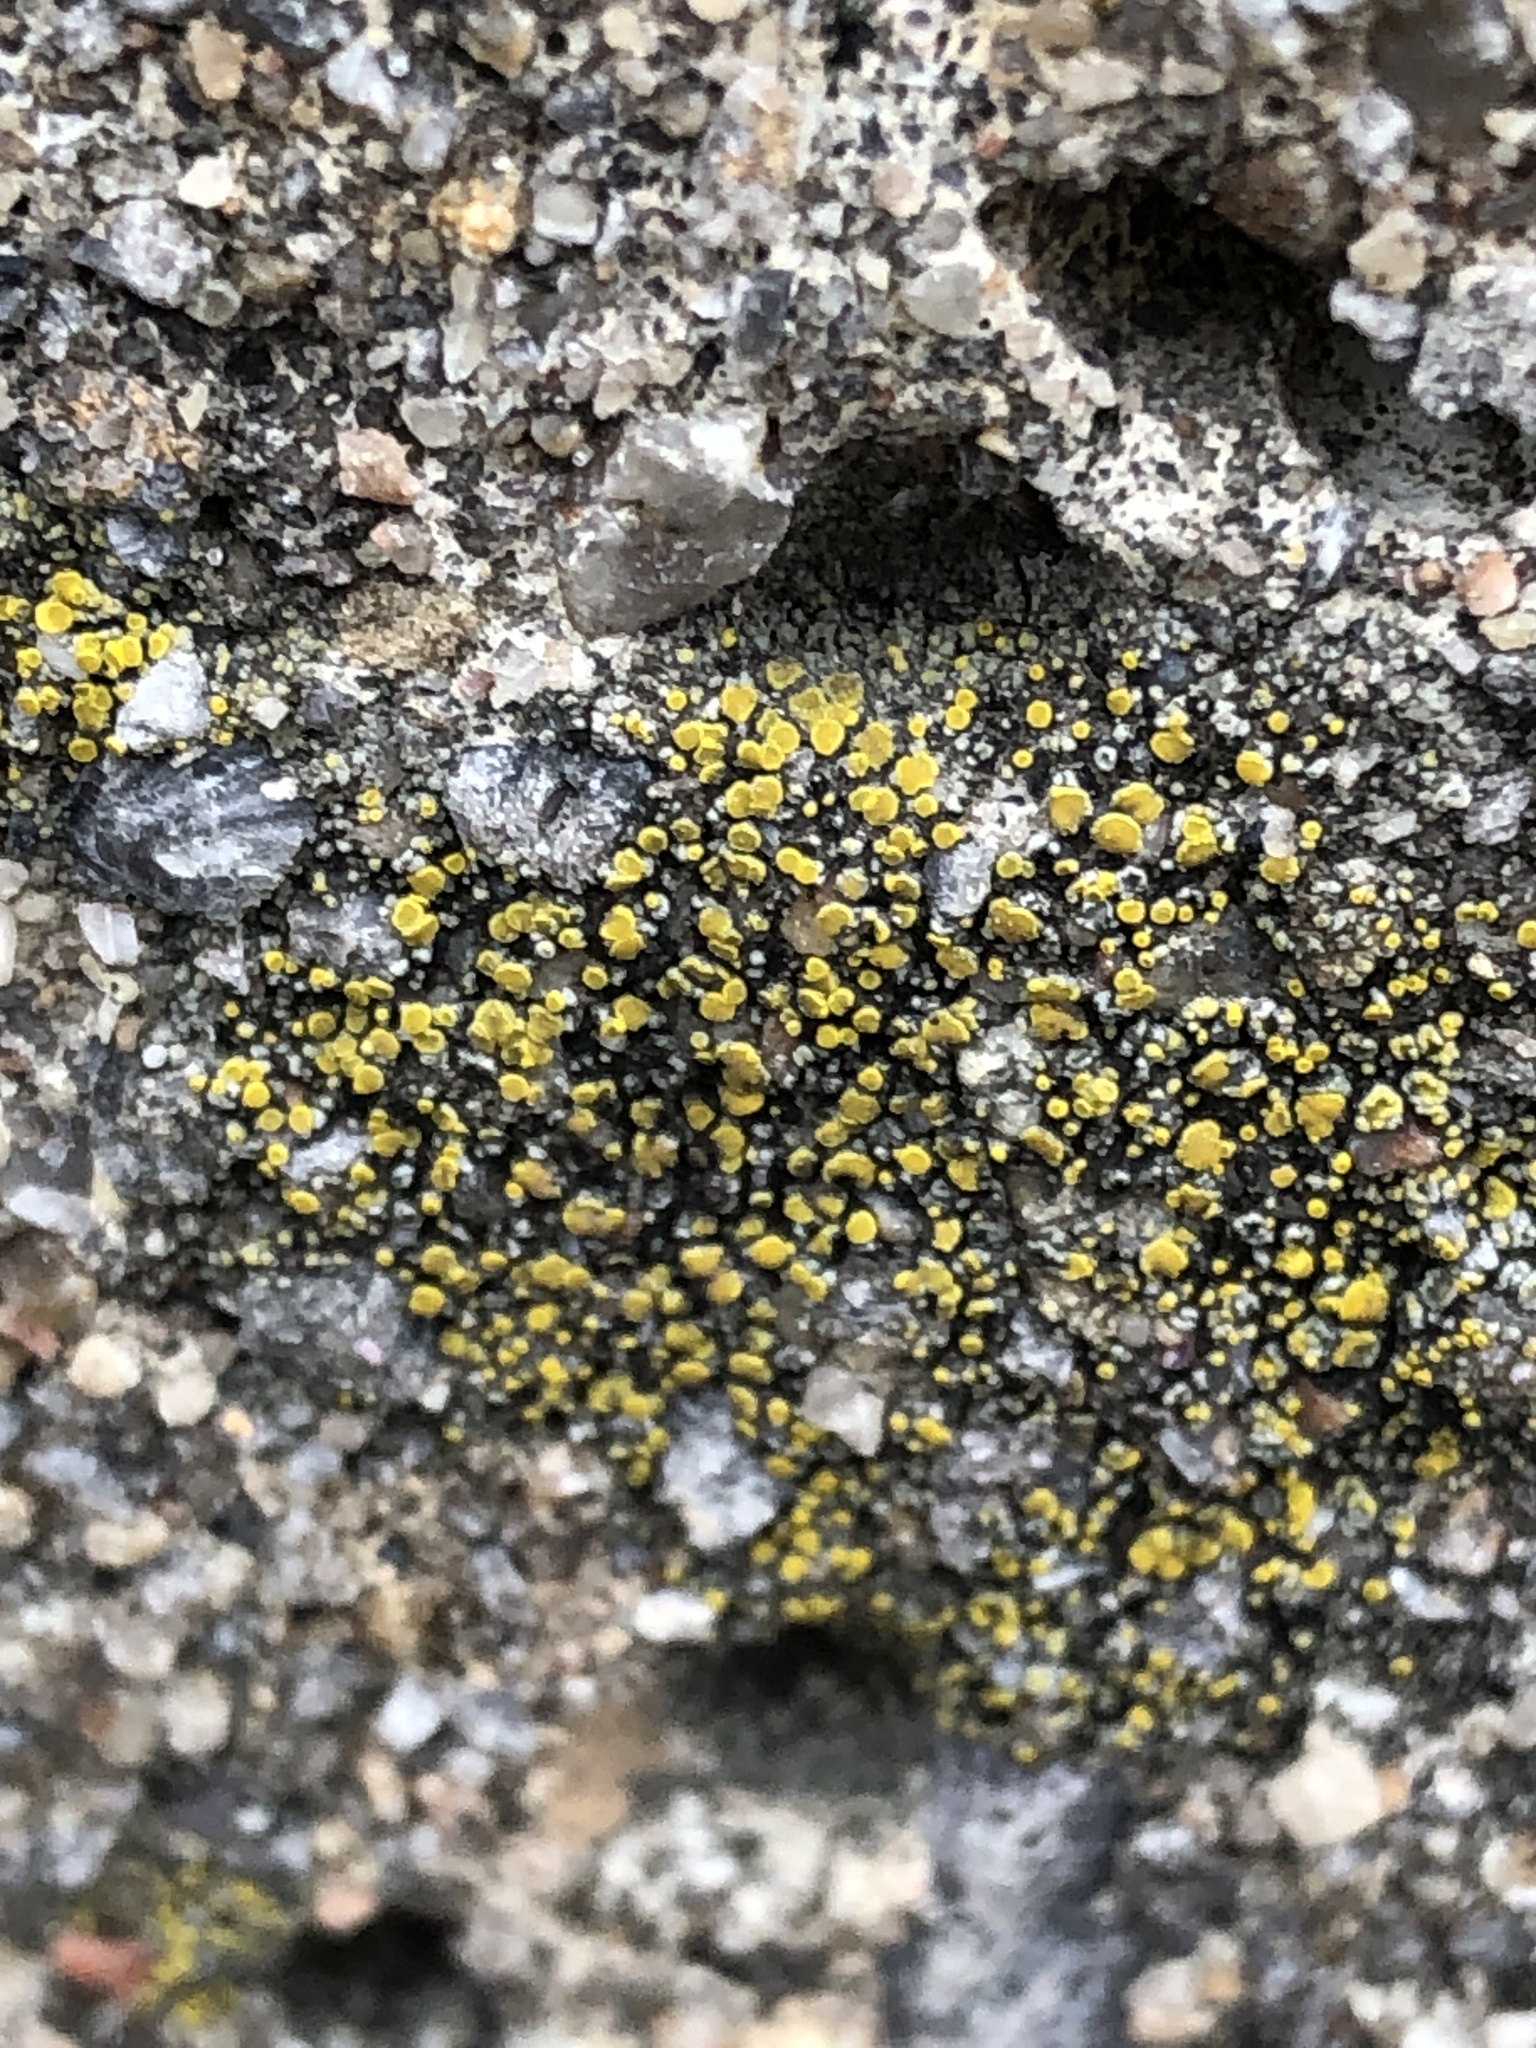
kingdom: Fungi
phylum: Ascomycota
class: Candelariomycetes
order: Candelariales
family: Candelariaceae
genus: Candelariella
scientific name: Candelariella vitellina
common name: Common goldspeck
